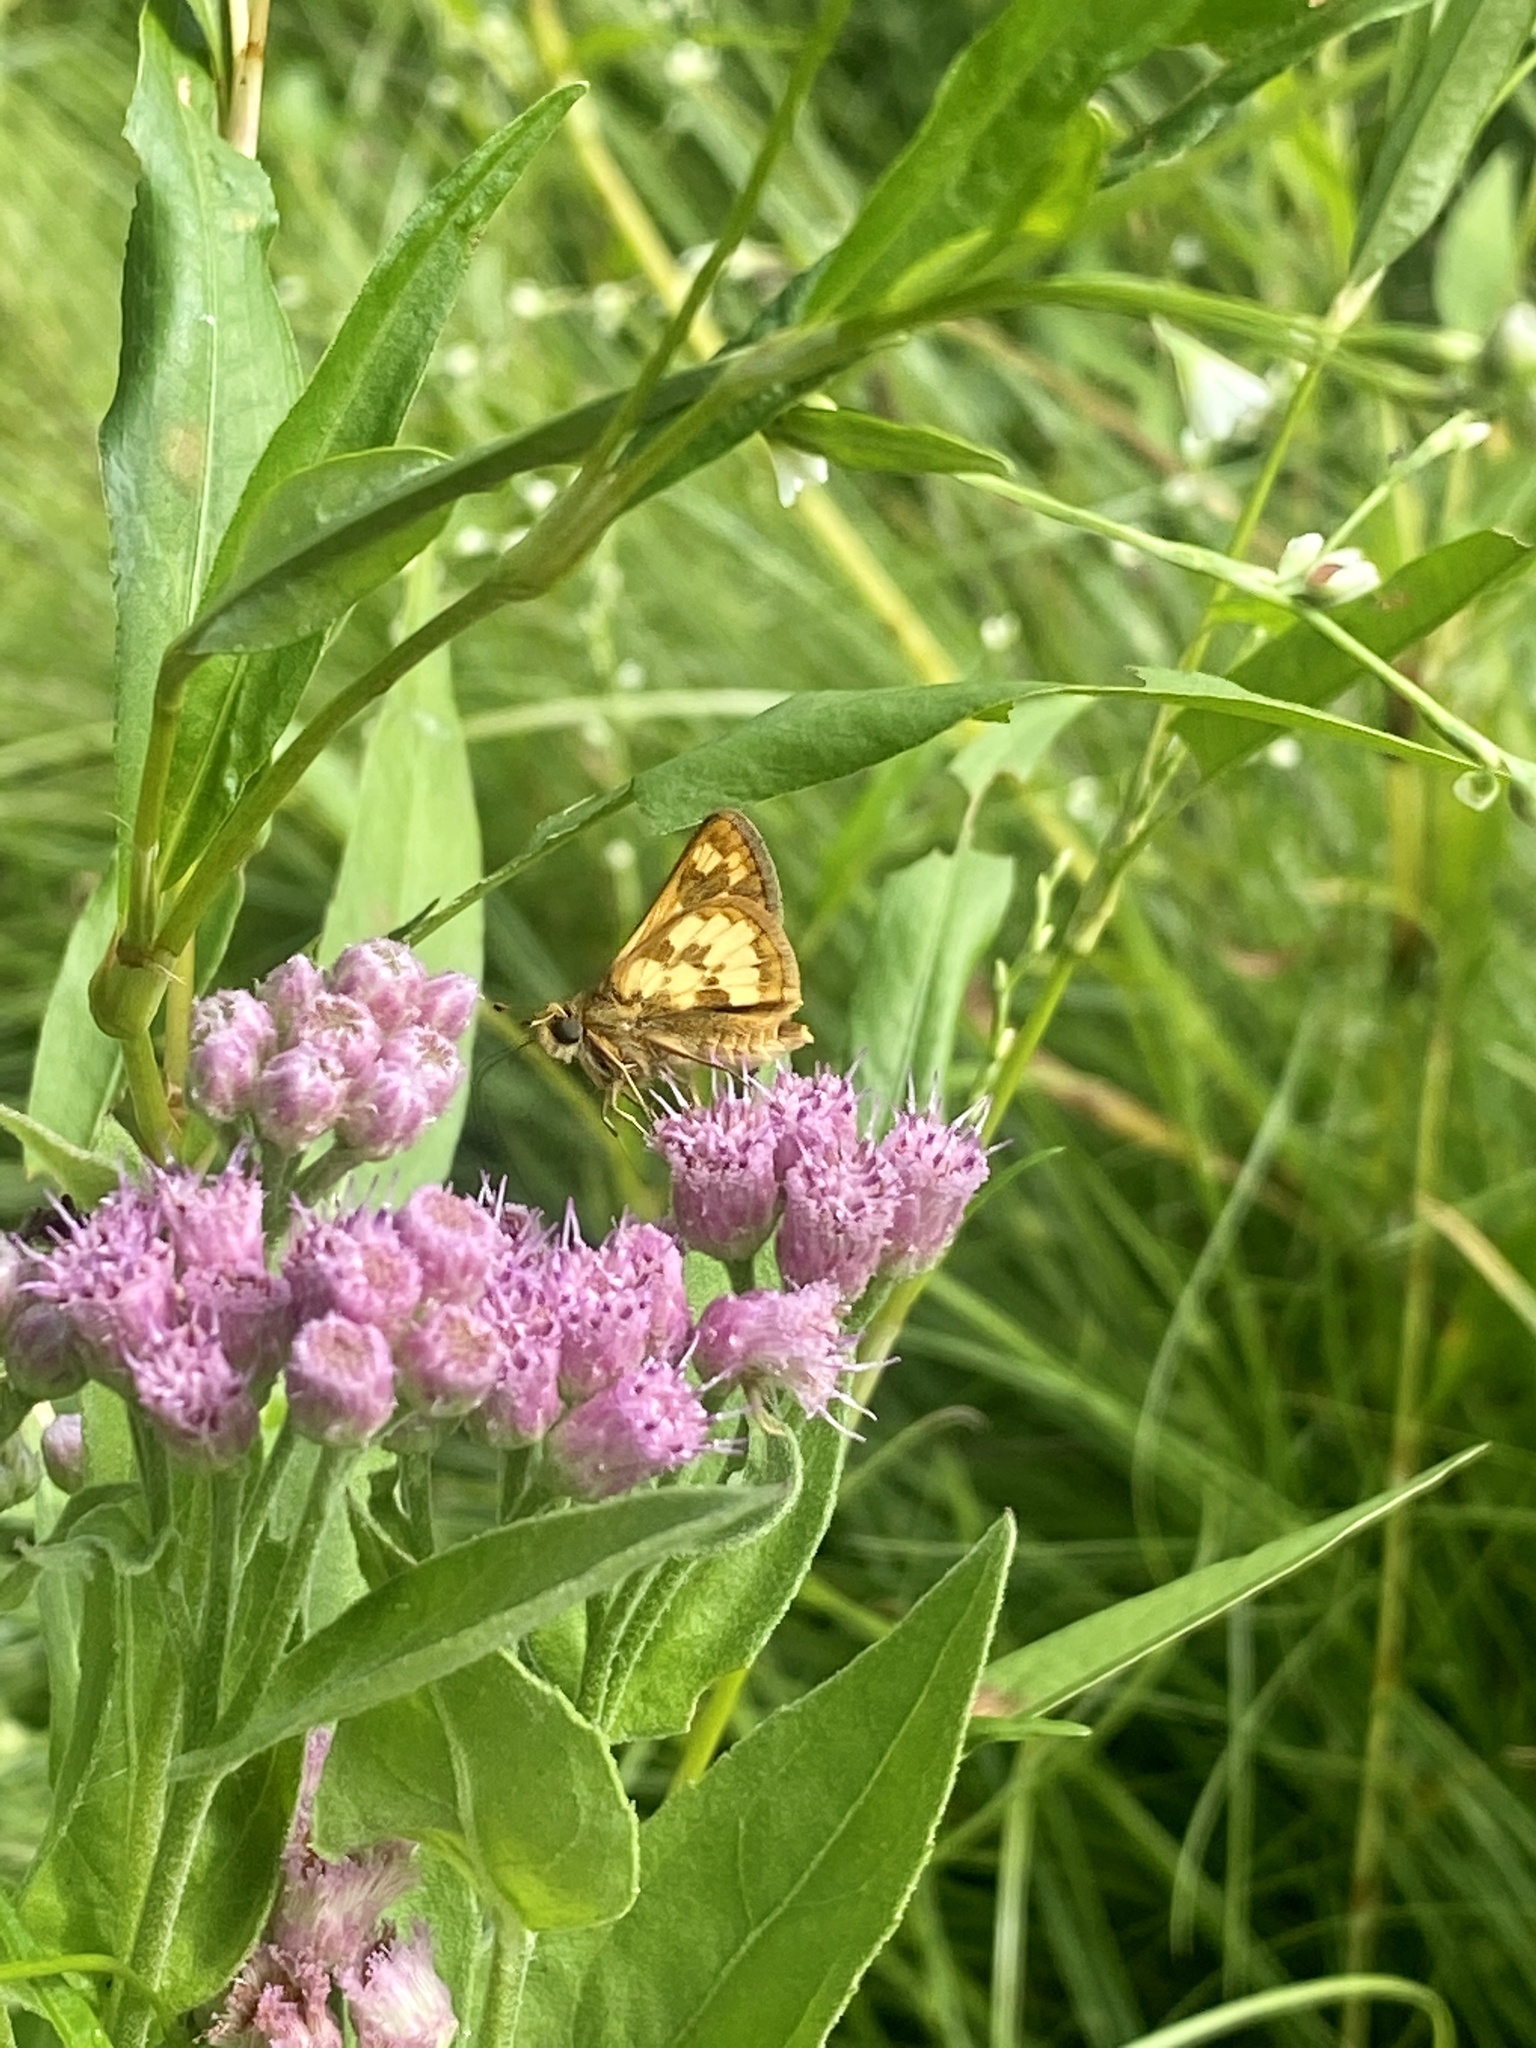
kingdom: Animalia
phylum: Arthropoda
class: Insecta
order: Lepidoptera
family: Hesperiidae
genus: Polites
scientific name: Polites coras
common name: Peck's skipper
